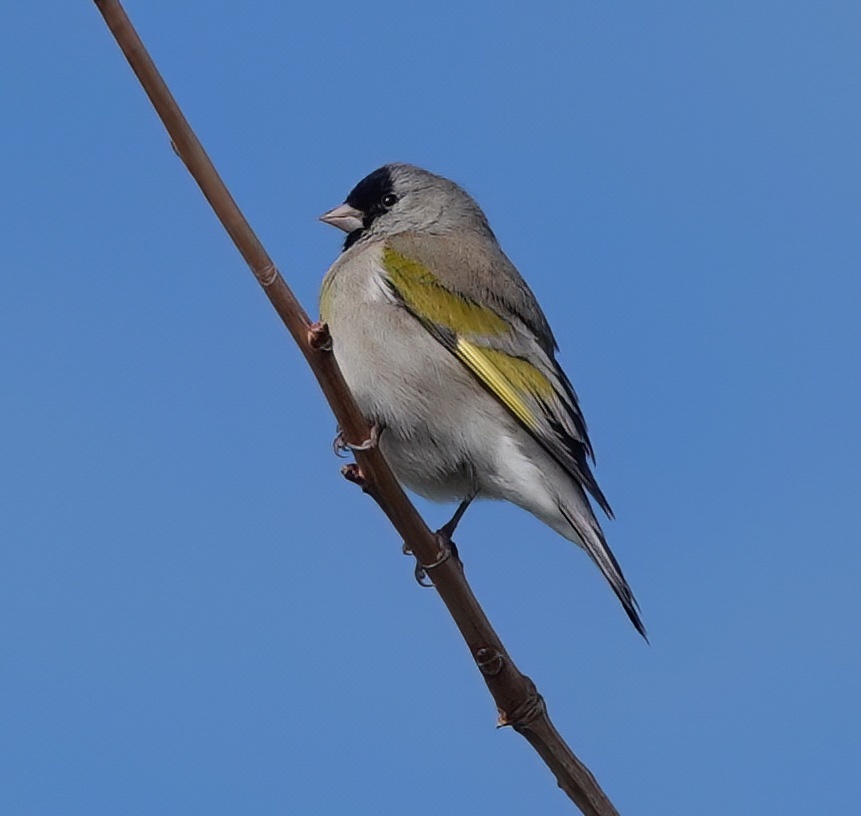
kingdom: Animalia
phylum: Chordata
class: Aves
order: Passeriformes
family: Fringillidae
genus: Spinus
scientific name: Spinus lawrencei
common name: Lawrence's goldfinch
